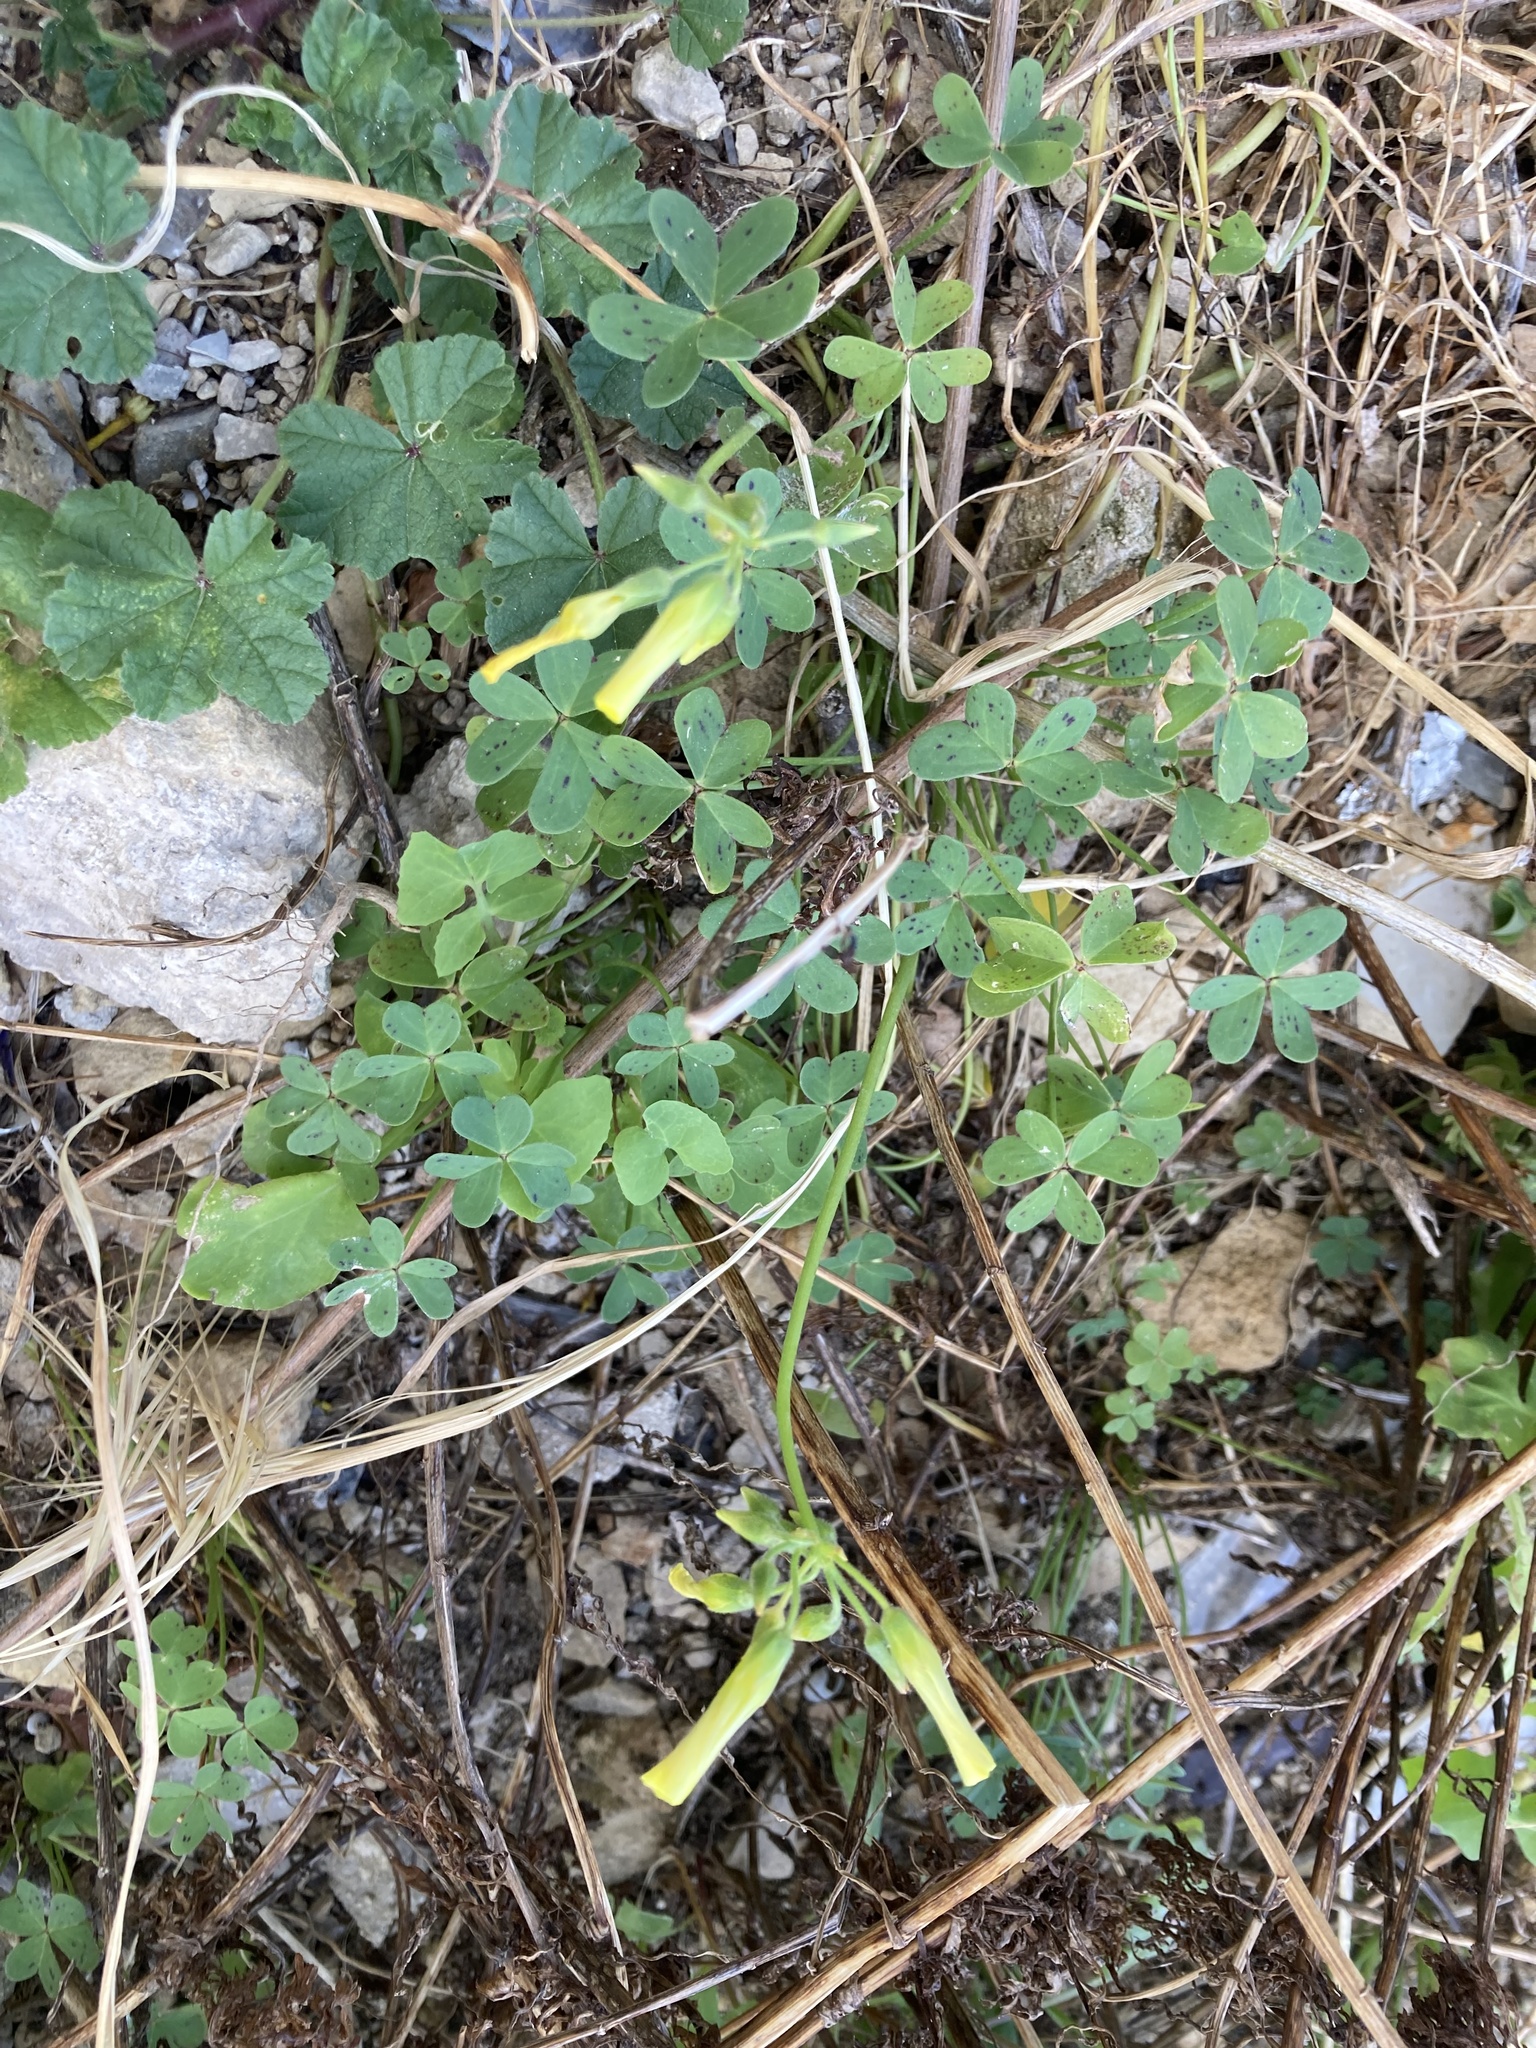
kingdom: Plantae
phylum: Tracheophyta
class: Magnoliopsida
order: Oxalidales
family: Oxalidaceae
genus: Oxalis
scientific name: Oxalis pes-caprae
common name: Bermuda-buttercup
